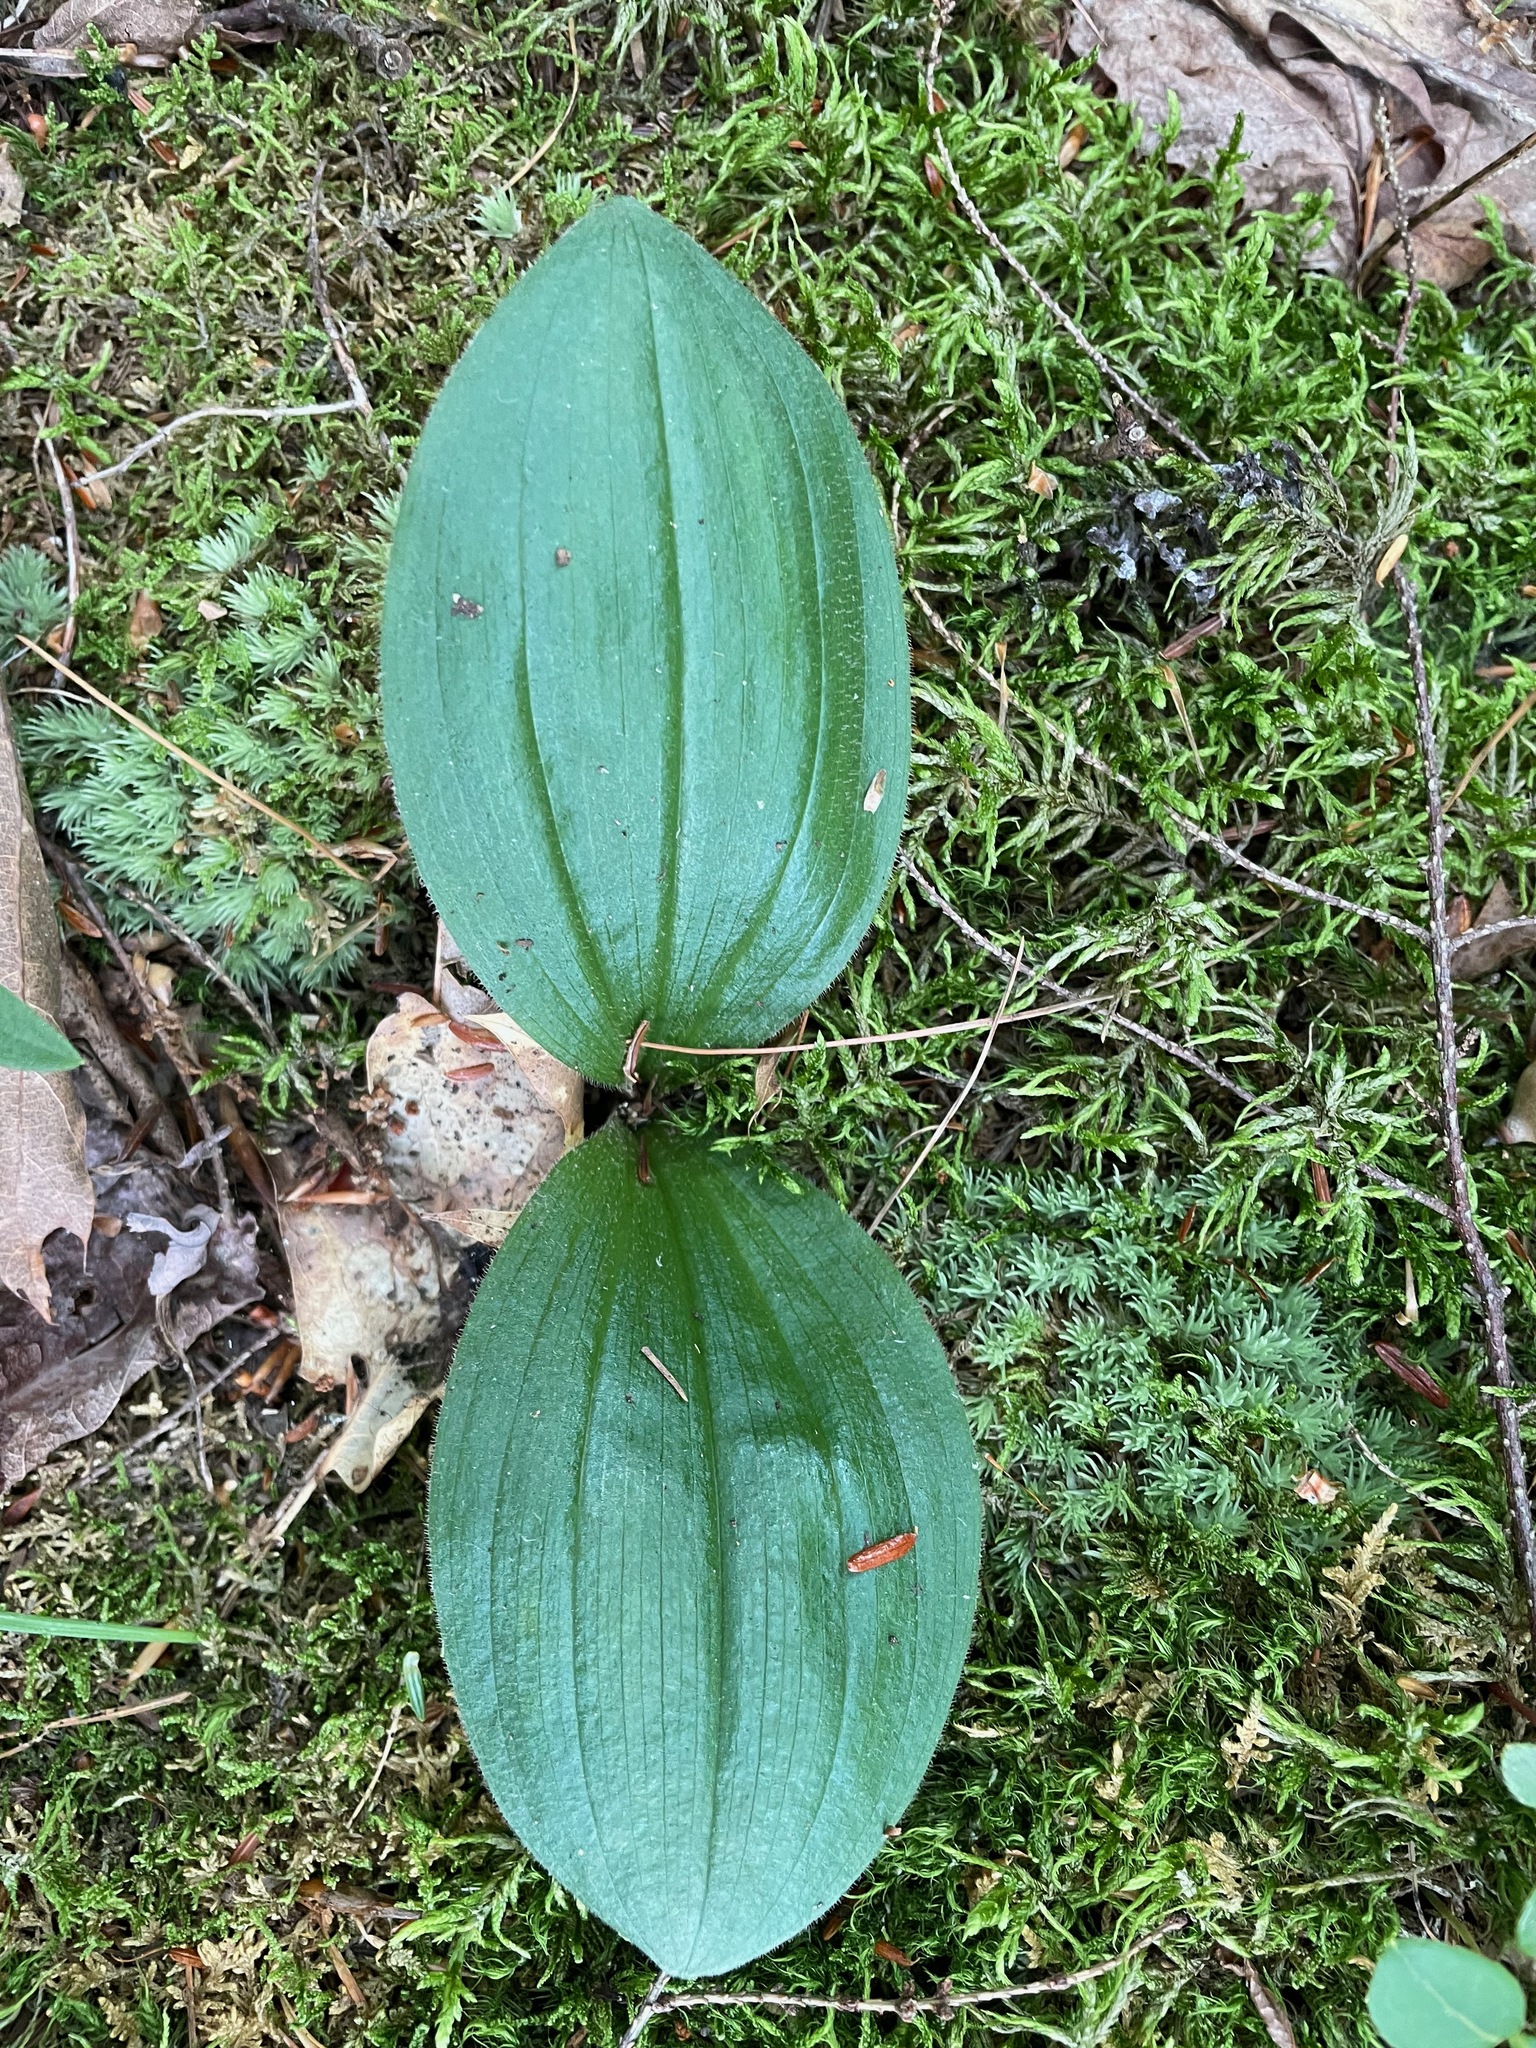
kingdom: Plantae
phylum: Tracheophyta
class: Liliopsida
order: Asparagales
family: Orchidaceae
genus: Cypripedium
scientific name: Cypripedium acaule
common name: Pink lady's-slipper
